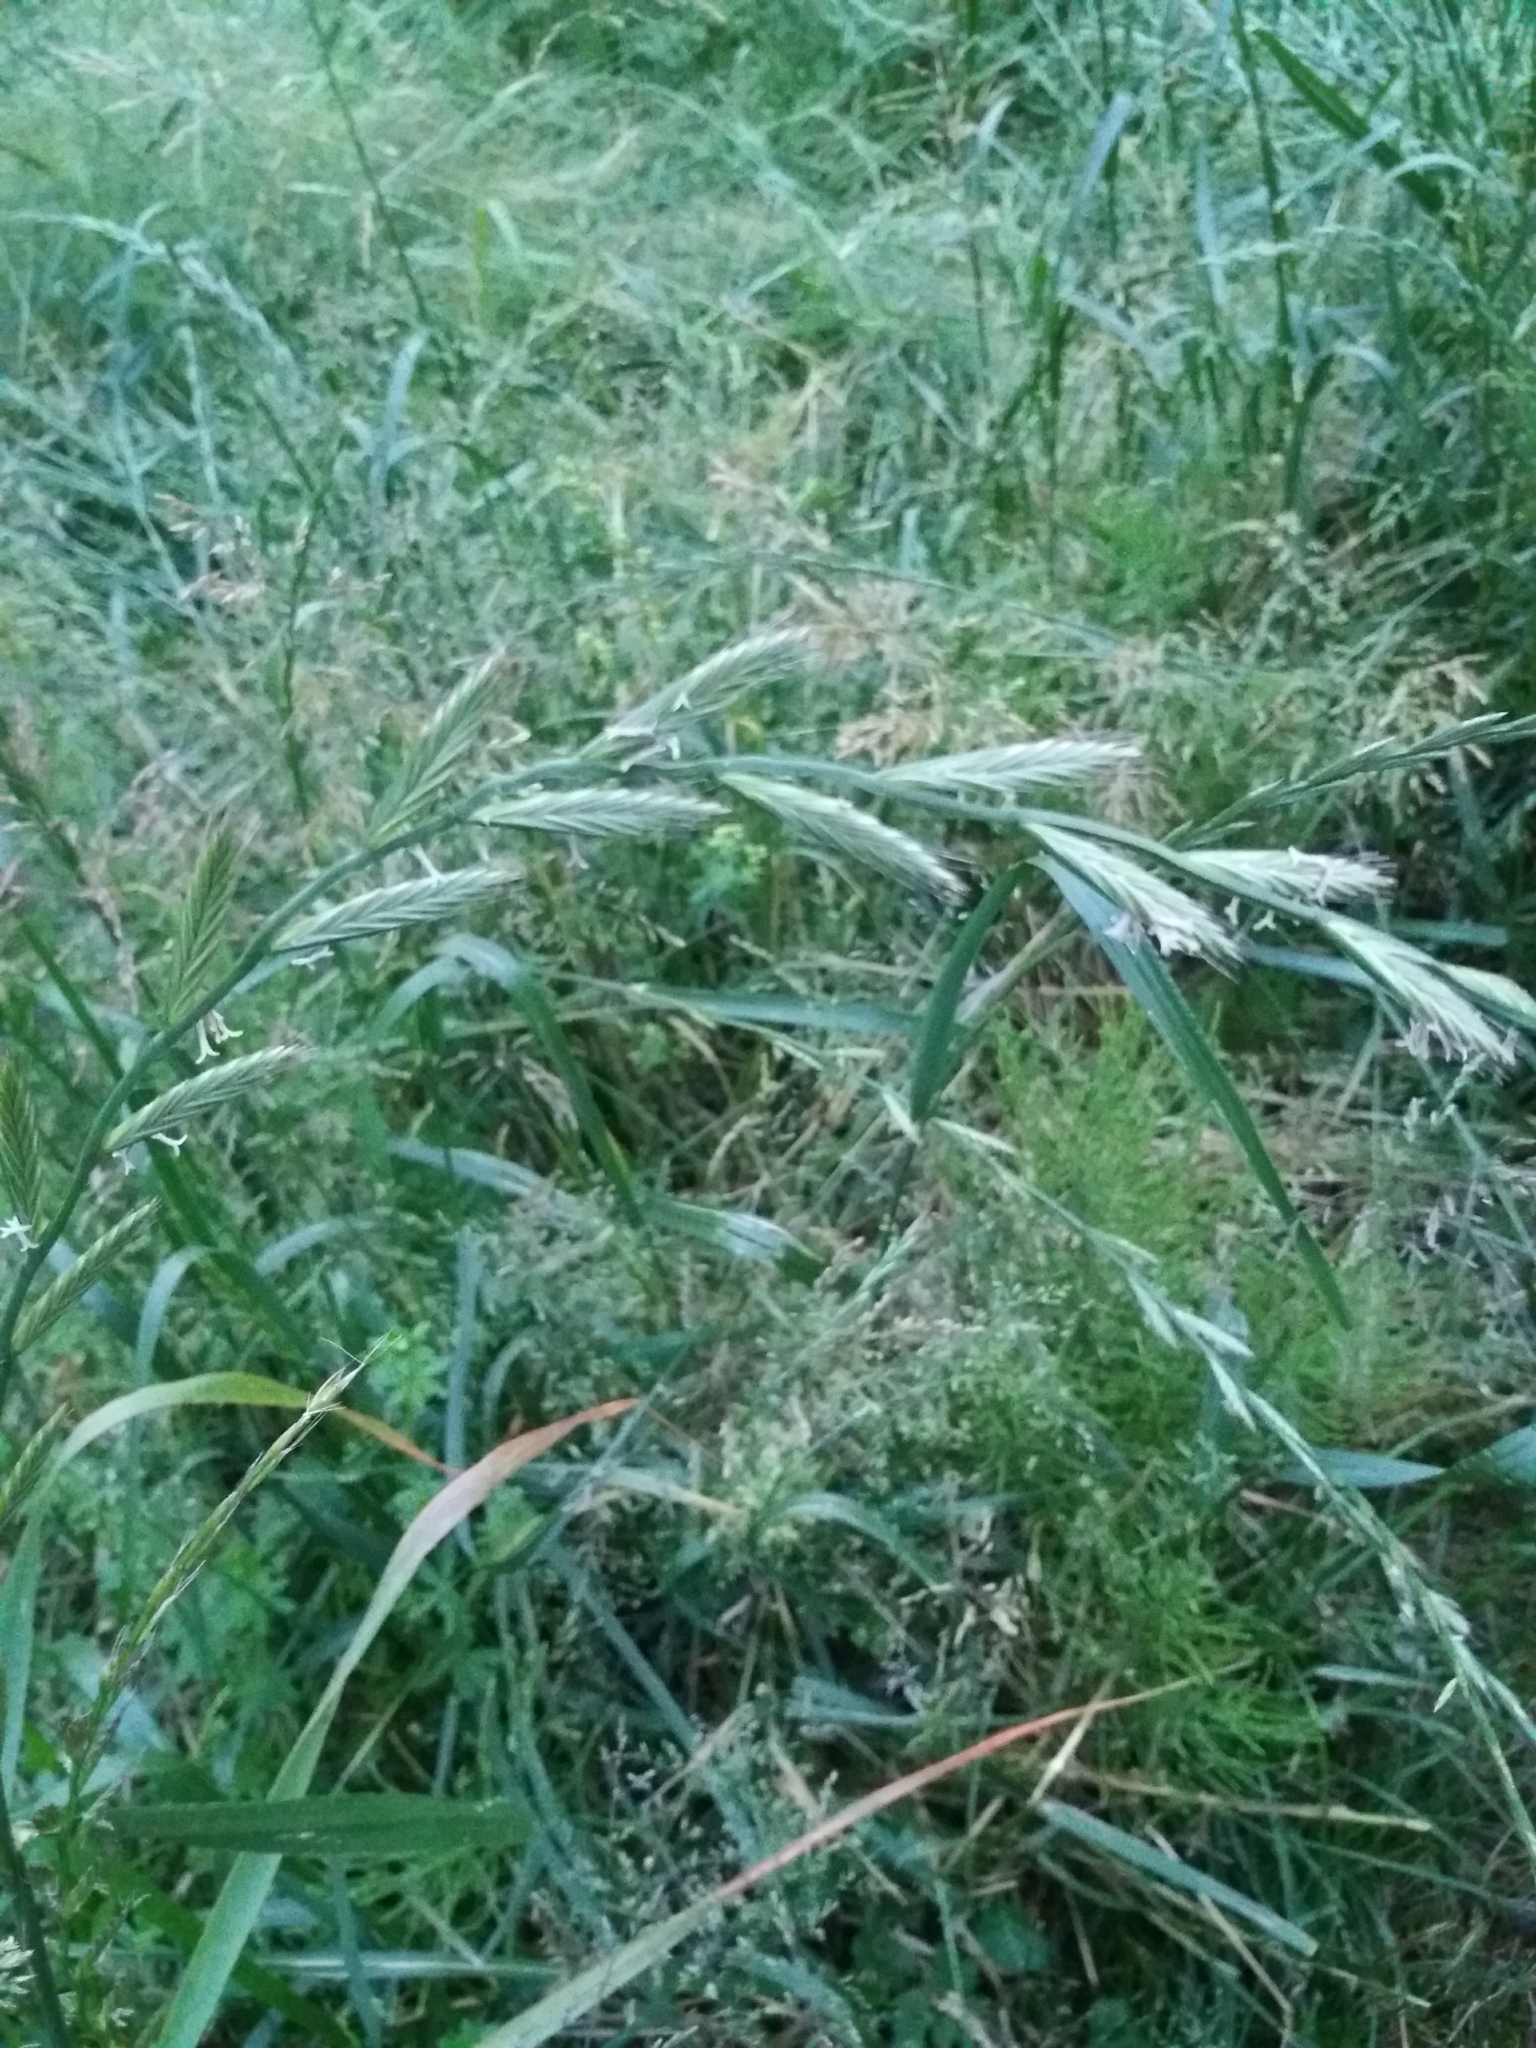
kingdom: Plantae
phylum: Tracheophyta
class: Liliopsida
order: Poales
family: Poaceae
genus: Lolium
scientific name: Lolium multiflorum
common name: Annual ryegrass
